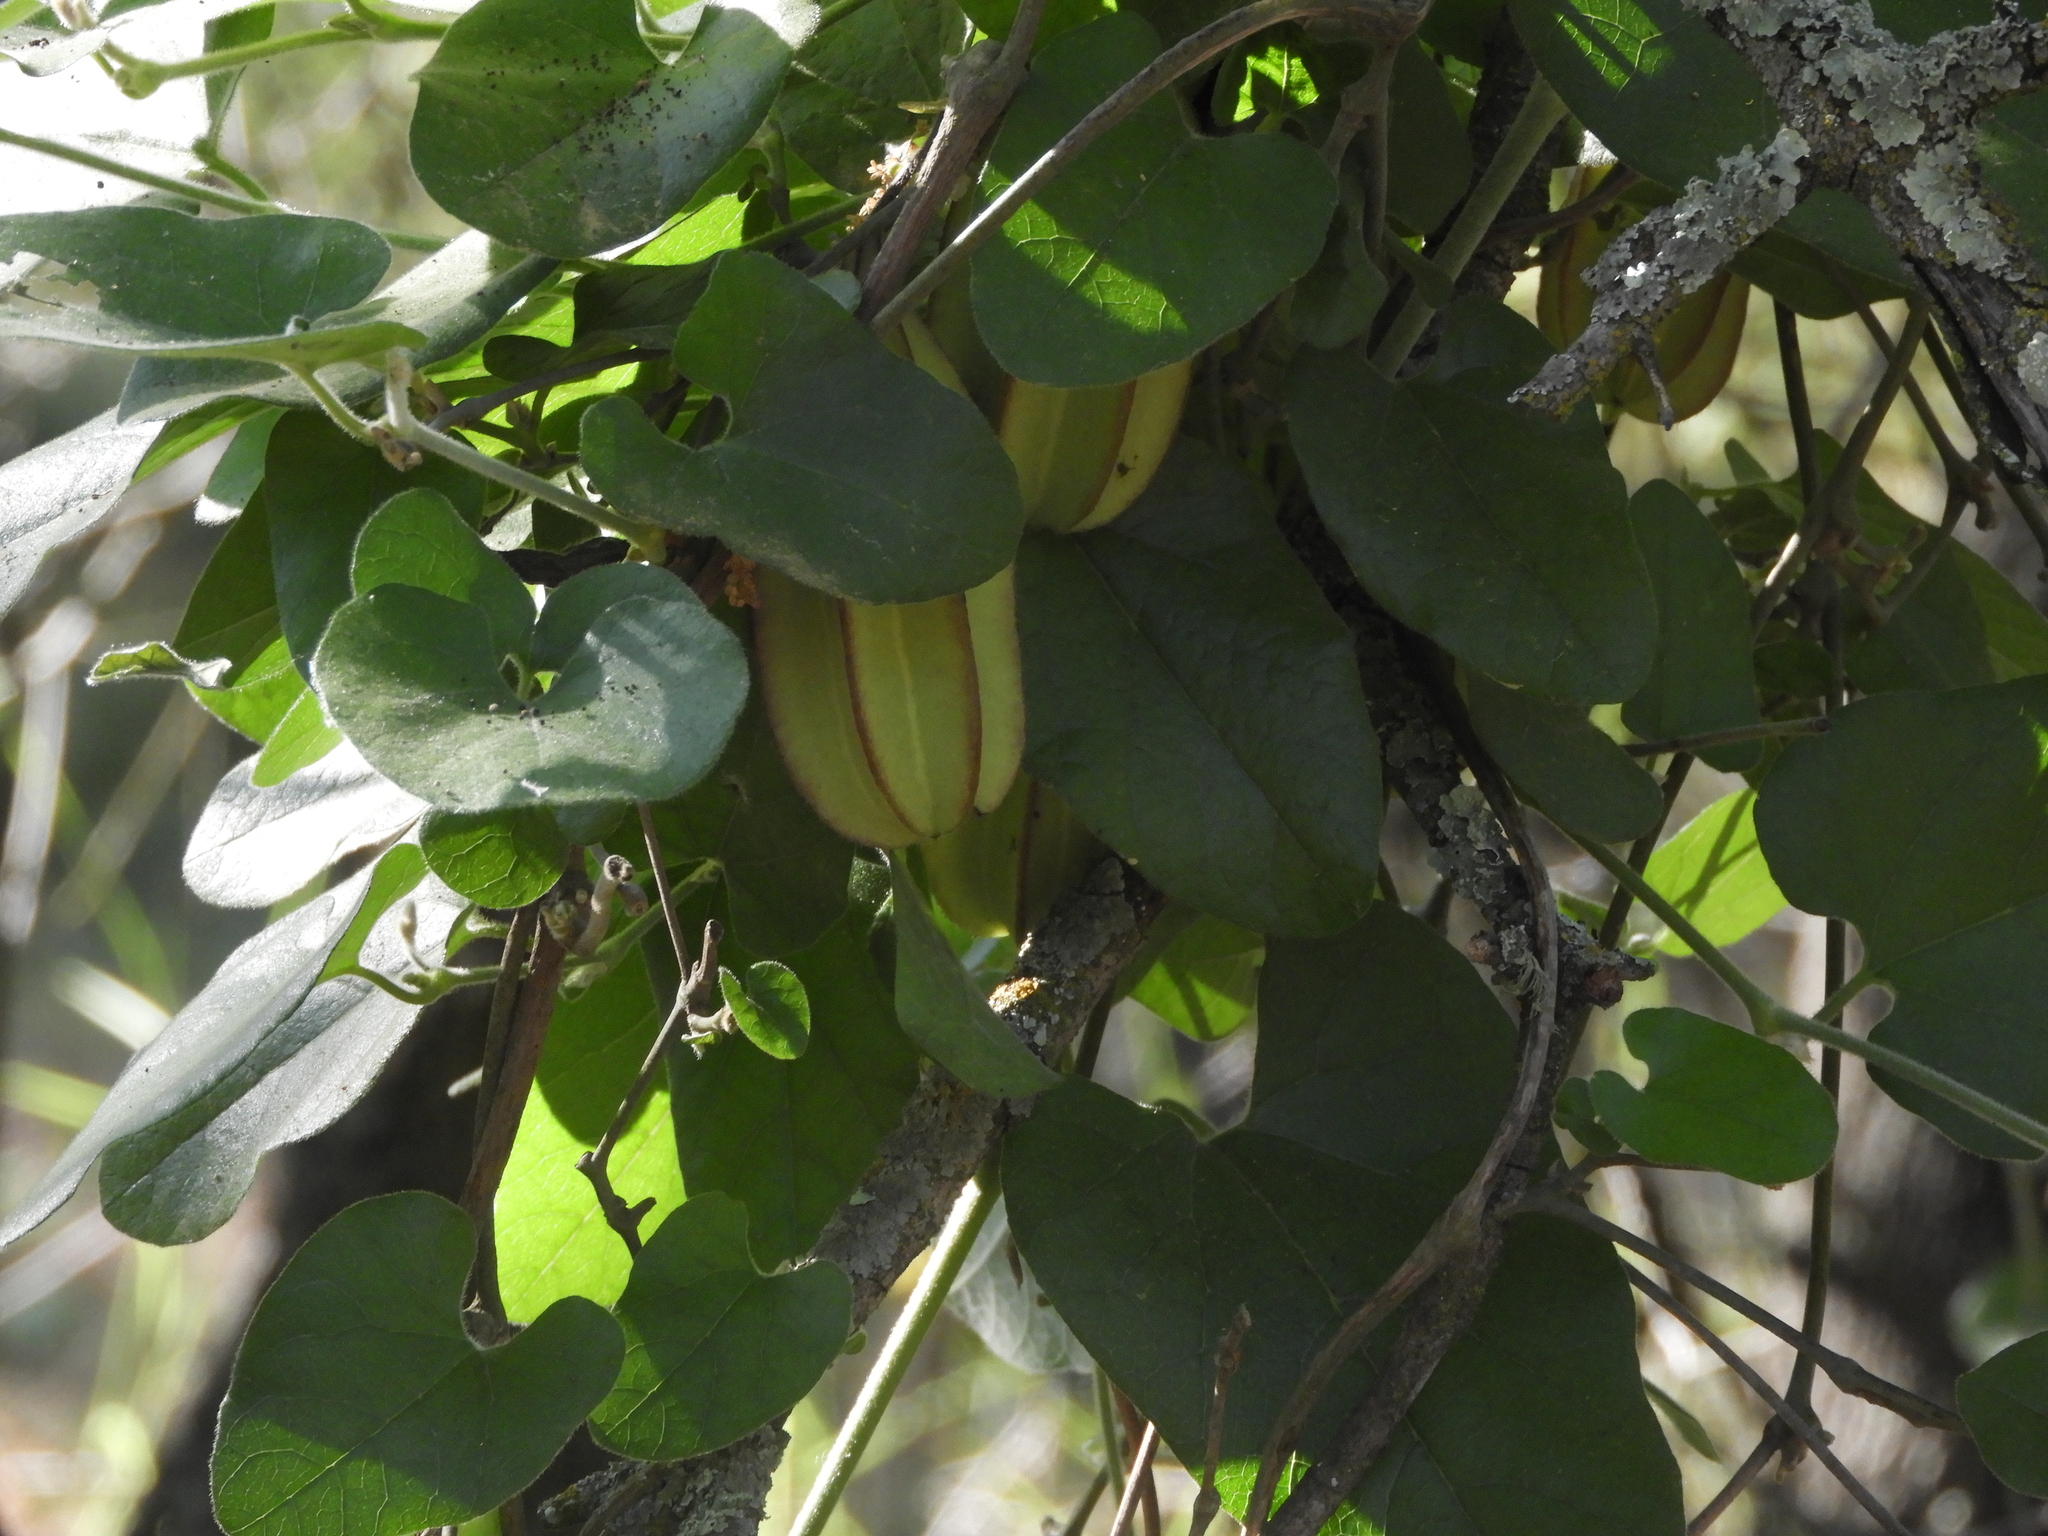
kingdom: Plantae
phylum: Tracheophyta
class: Magnoliopsida
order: Piperales
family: Aristolochiaceae
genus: Isotrema
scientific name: Isotrema californicum
